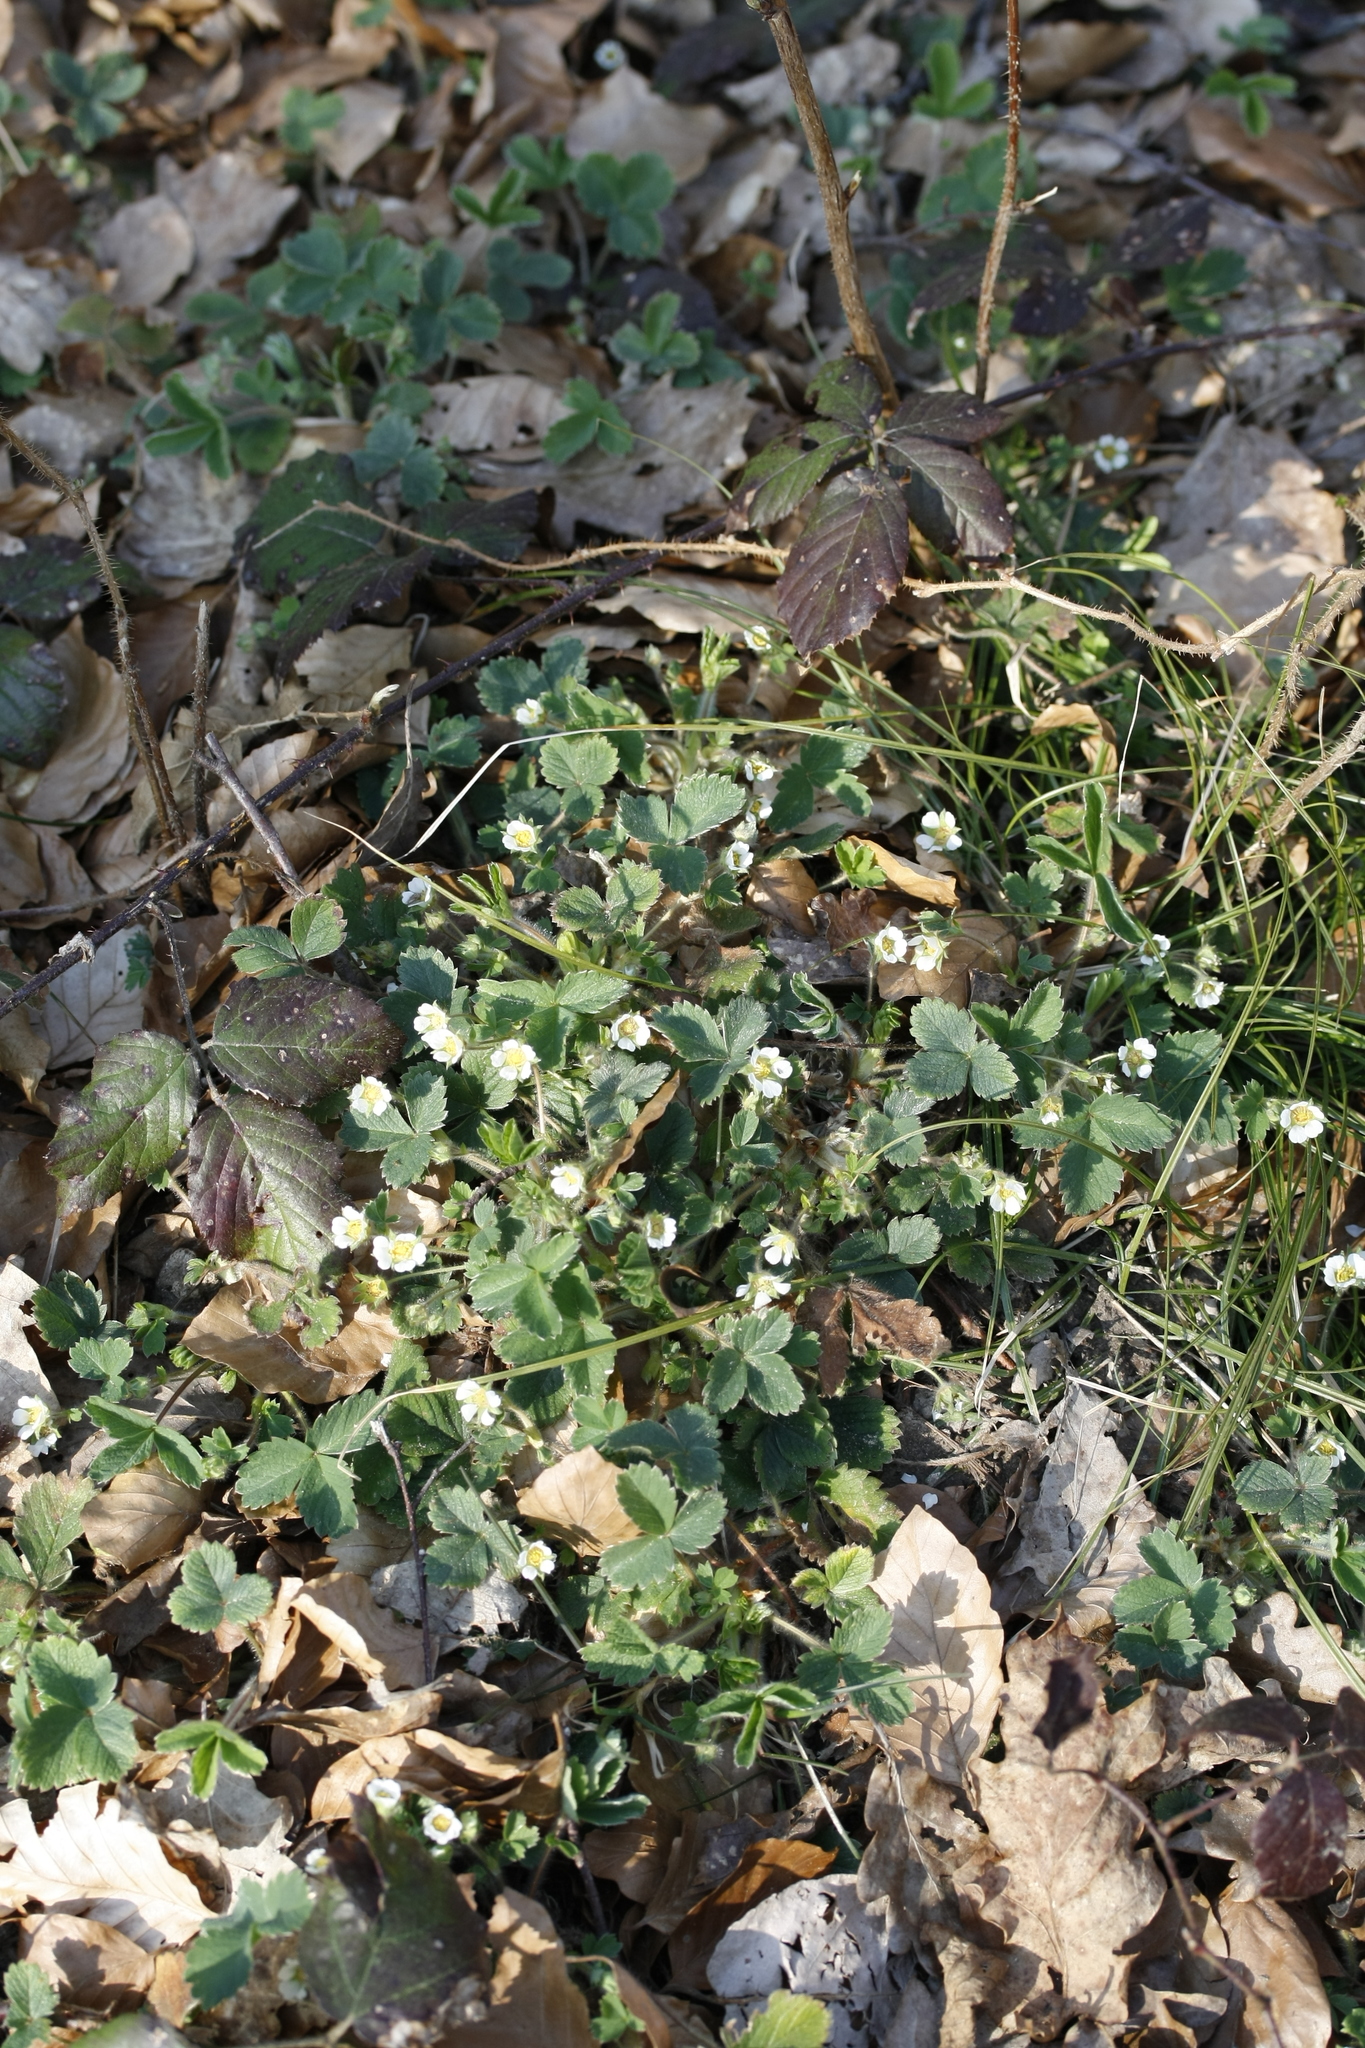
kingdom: Plantae
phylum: Tracheophyta
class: Magnoliopsida
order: Rosales
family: Rosaceae
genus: Potentilla
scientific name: Potentilla sterilis
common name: Barren strawberry
